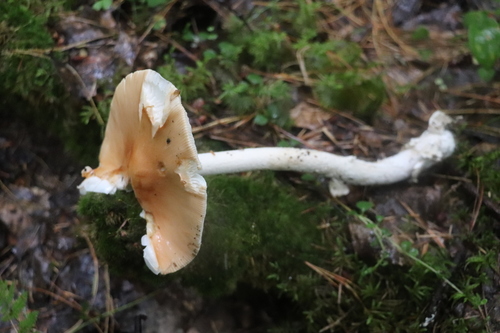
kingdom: Fungi
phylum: Basidiomycota
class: Agaricomycetes
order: Agaricales
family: Amanitaceae
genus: Amanita
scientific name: Amanita crocea
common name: Orange grisette
